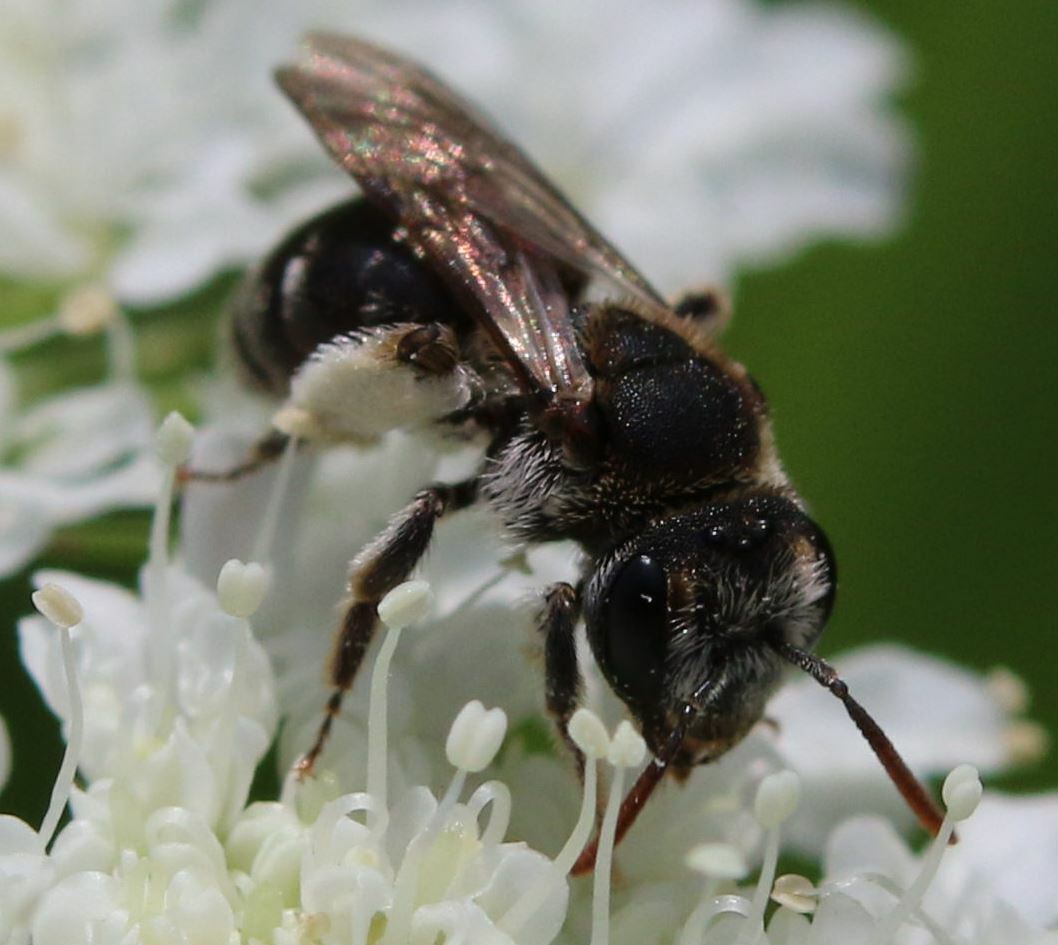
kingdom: Animalia
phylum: Arthropoda
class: Insecta
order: Hymenoptera
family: Andrenidae
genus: Andrena
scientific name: Andrena colletiformis
